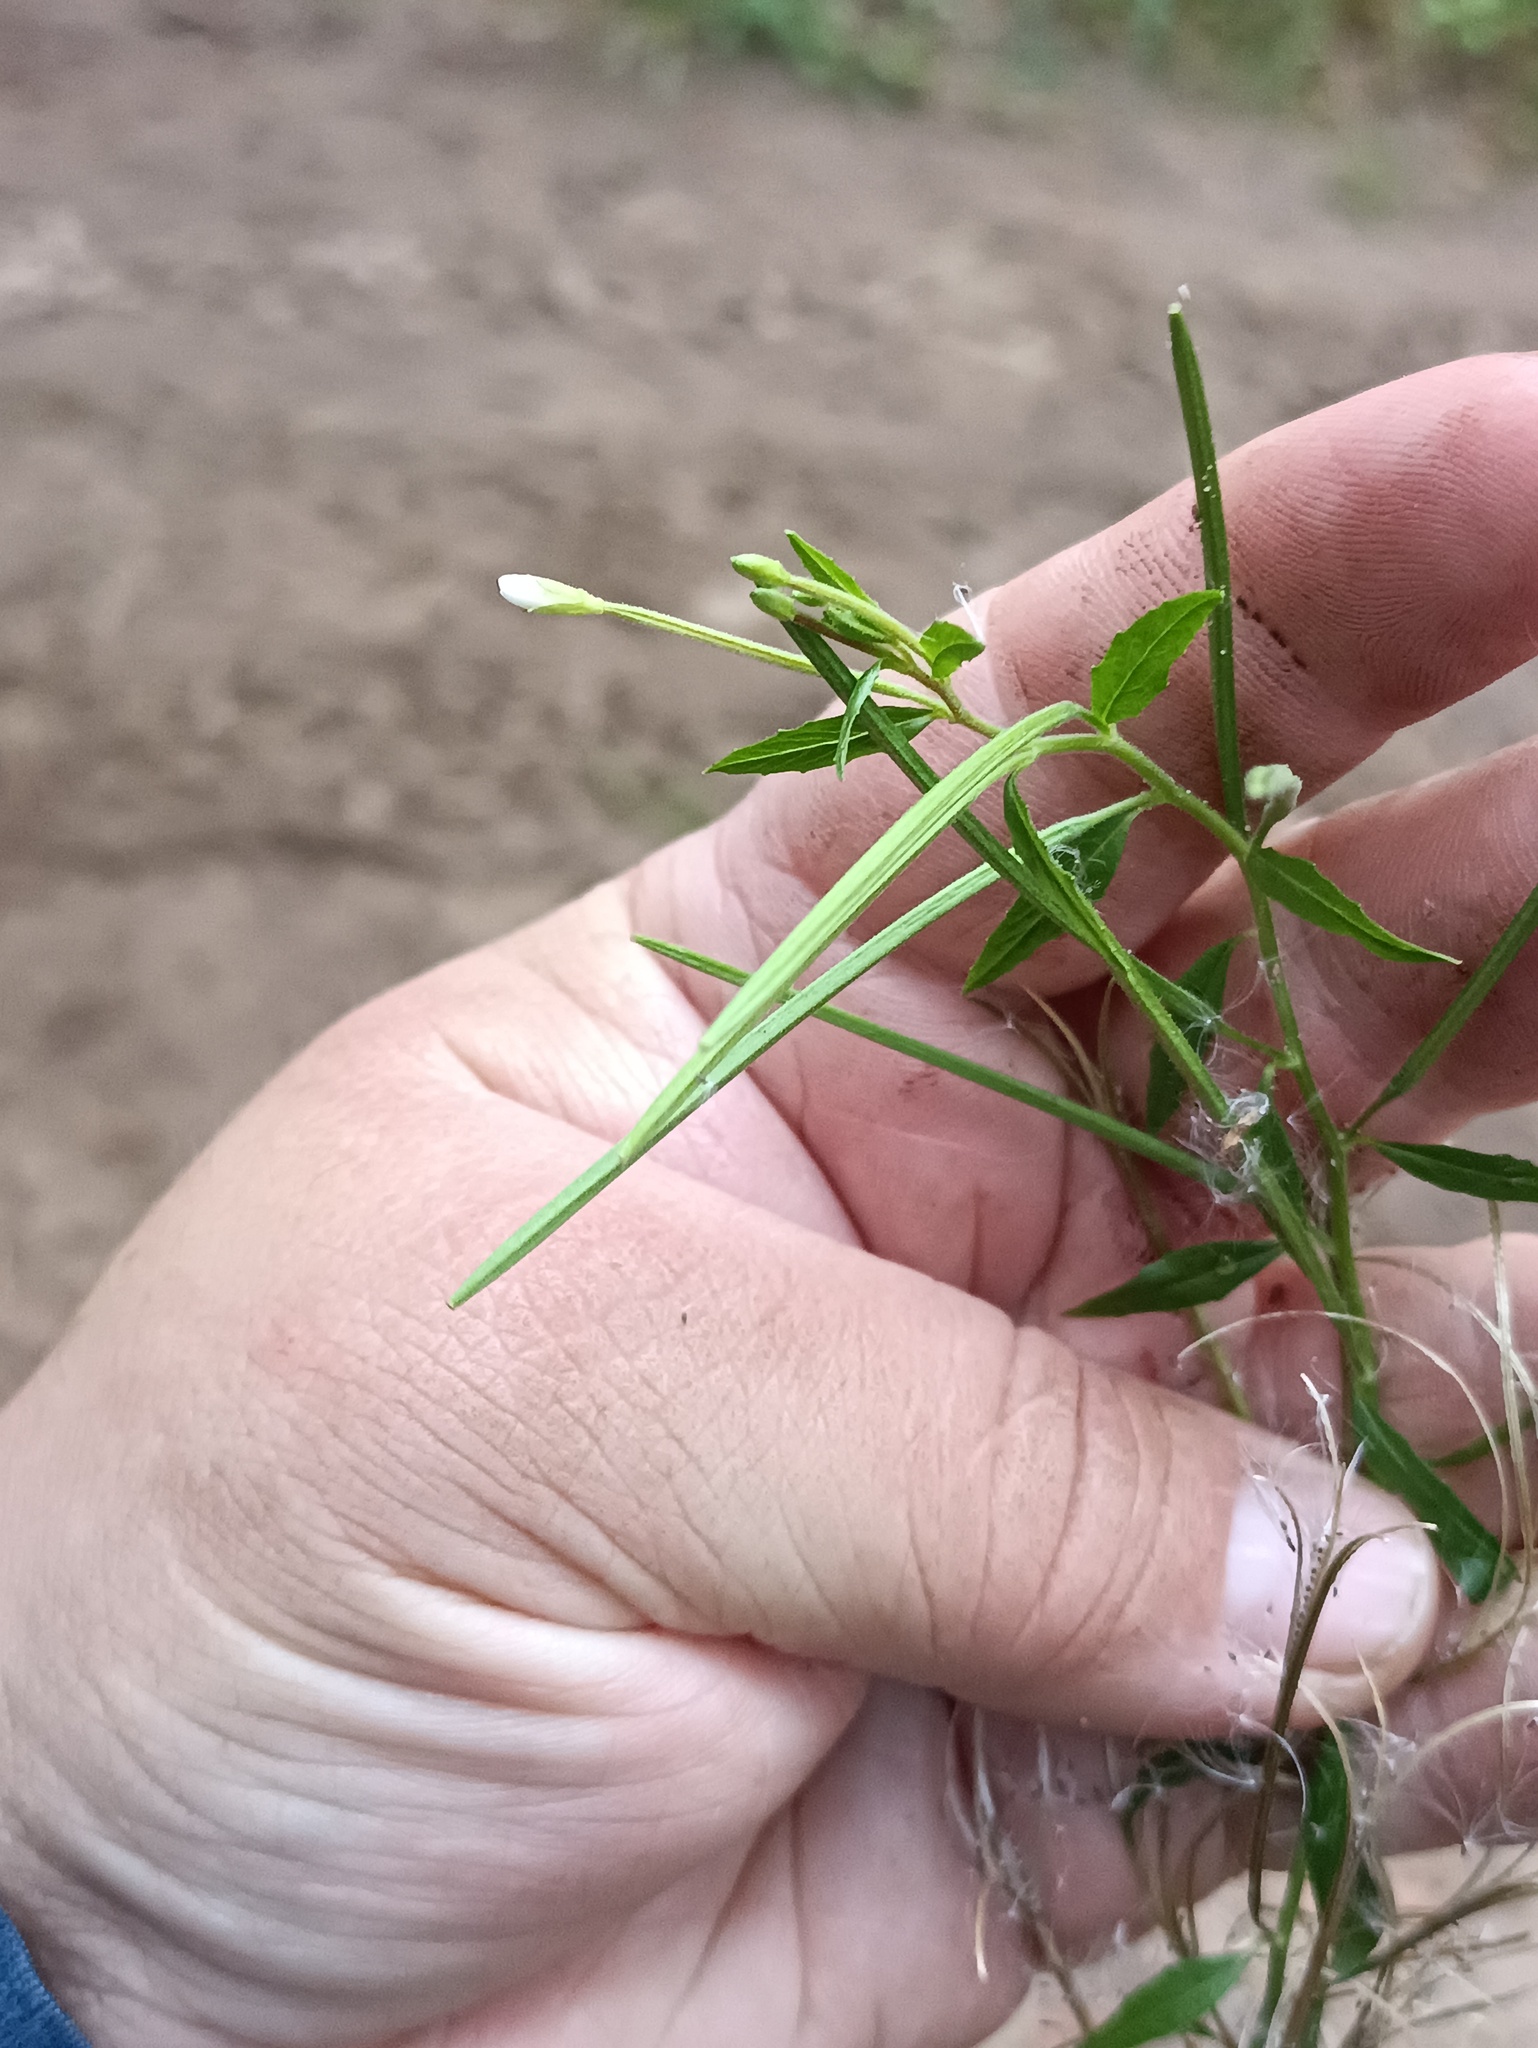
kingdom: Plantae
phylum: Tracheophyta
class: Magnoliopsida
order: Myrtales
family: Onagraceae
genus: Epilobium
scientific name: Epilobium pseudorubescens
